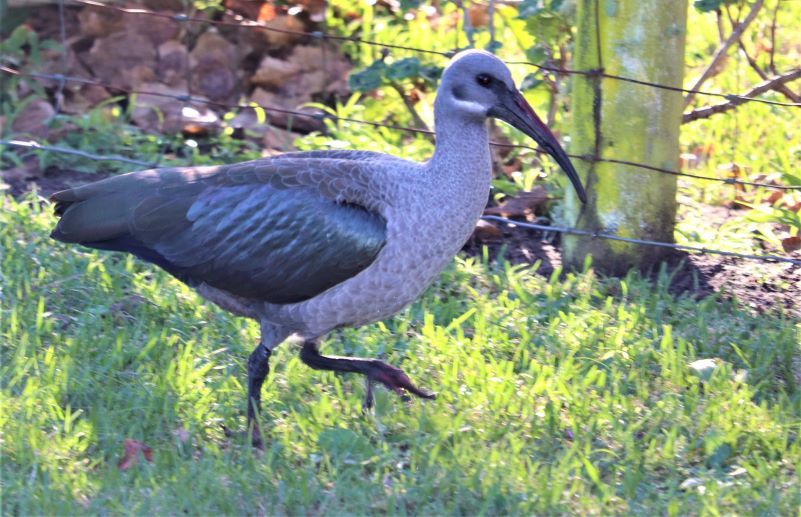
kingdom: Animalia
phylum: Chordata
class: Aves
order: Pelecaniformes
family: Threskiornithidae
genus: Bostrychia
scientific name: Bostrychia hagedash
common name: Hadada ibis
